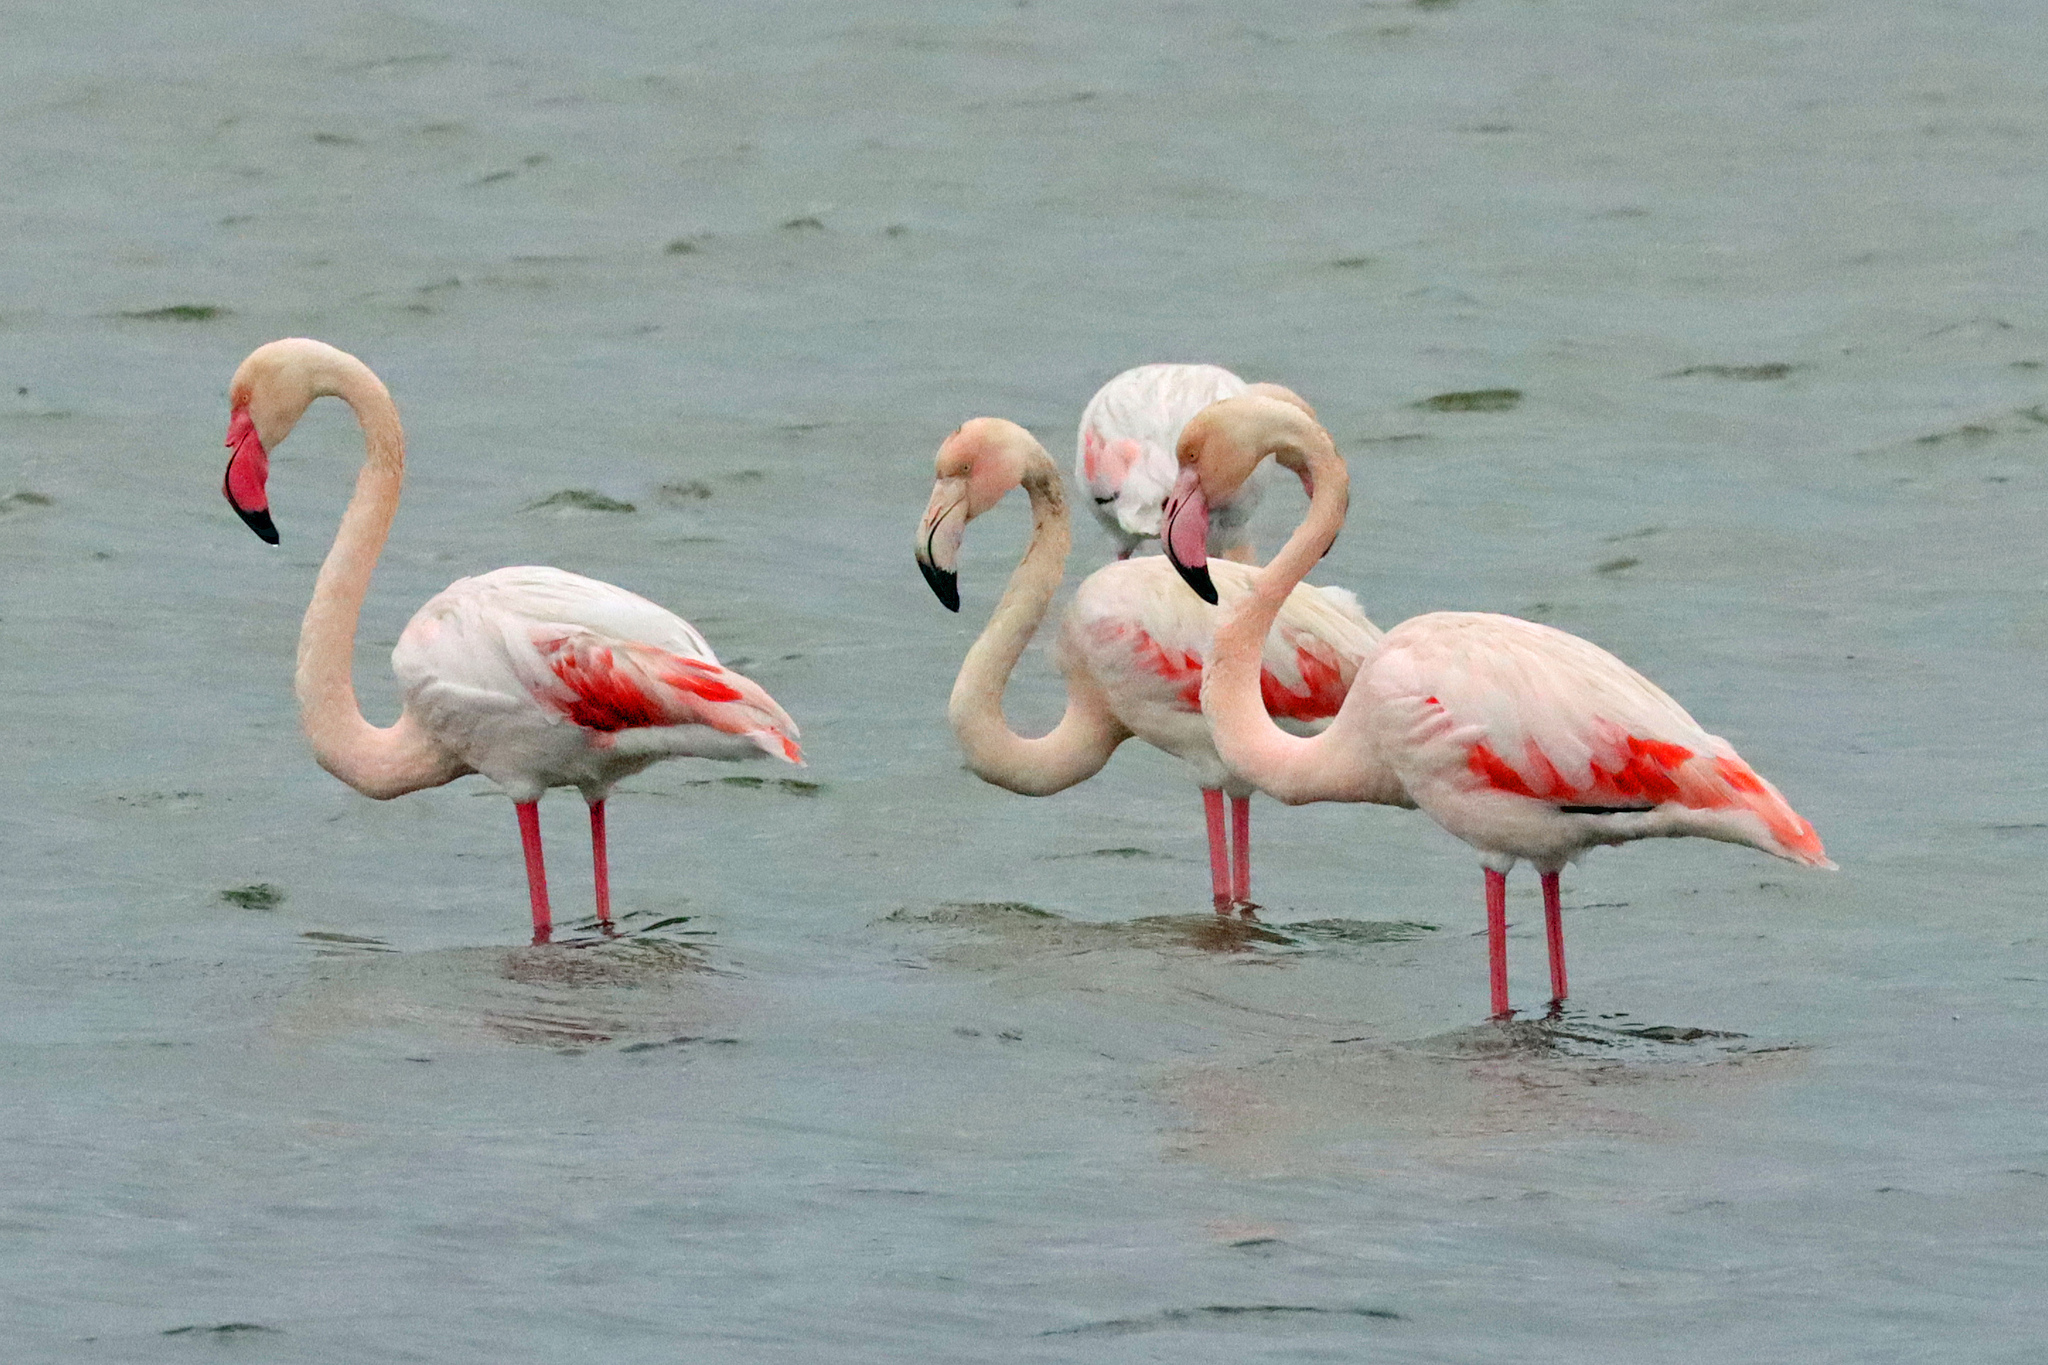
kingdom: Animalia
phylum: Chordata
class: Aves
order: Phoenicopteriformes
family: Phoenicopteridae
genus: Phoenicopterus
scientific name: Phoenicopterus roseus
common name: Greater flamingo
